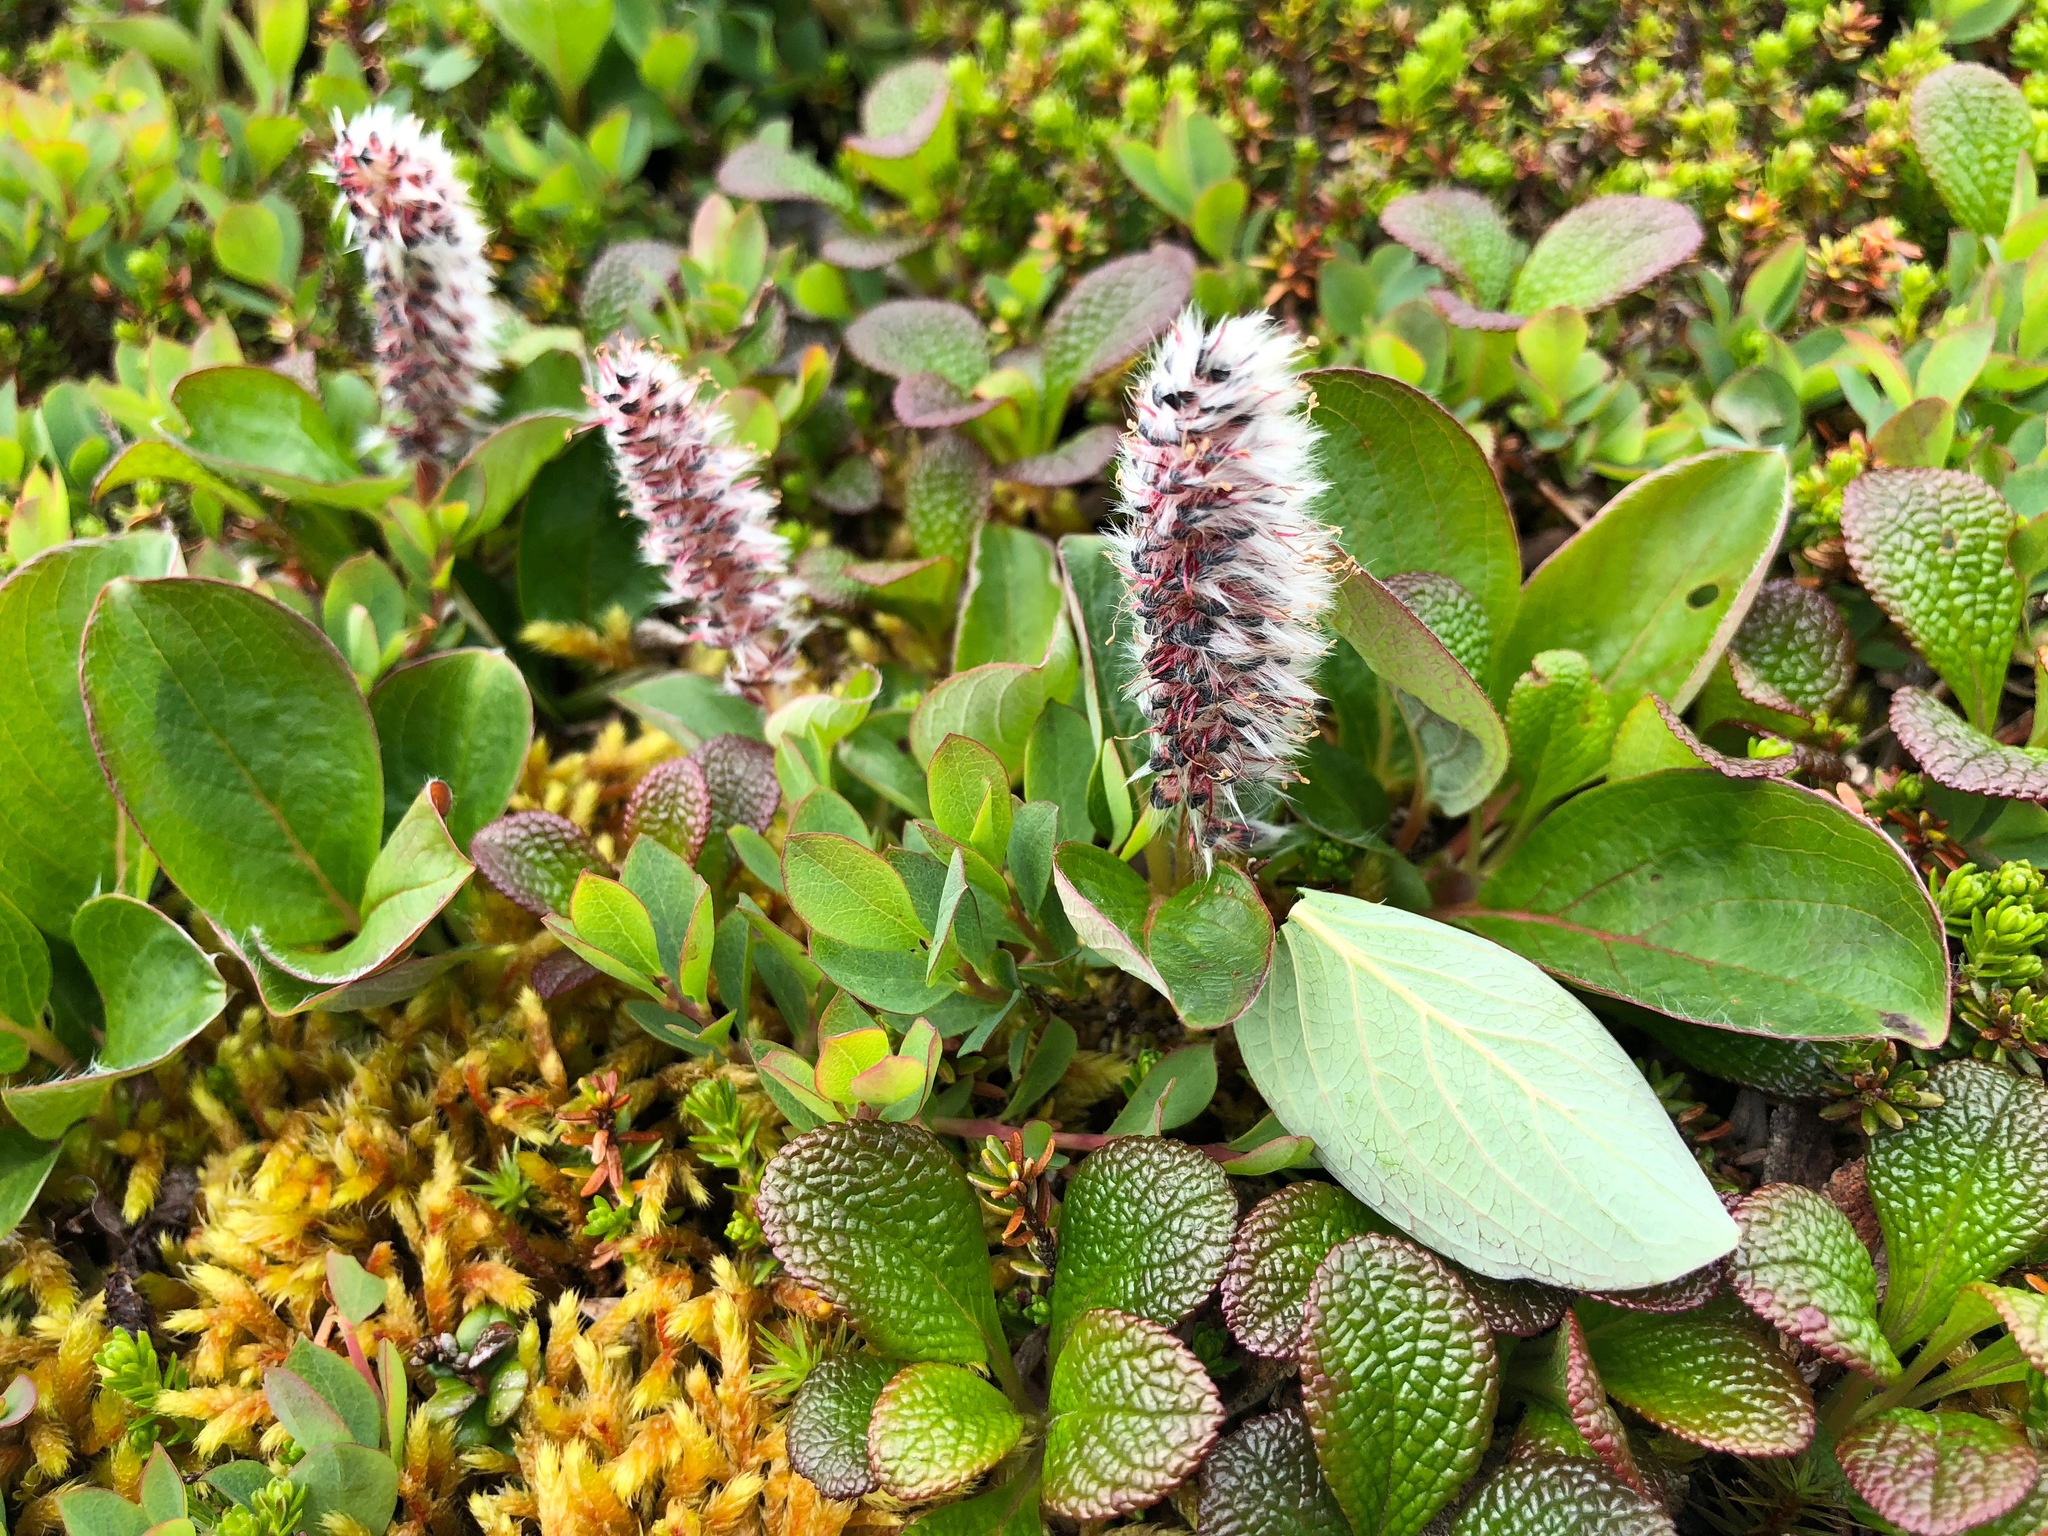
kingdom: Plantae
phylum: Tracheophyta
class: Magnoliopsida
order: Malpighiales
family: Salicaceae
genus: Salix
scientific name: Salix arctica
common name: Arctic willow
